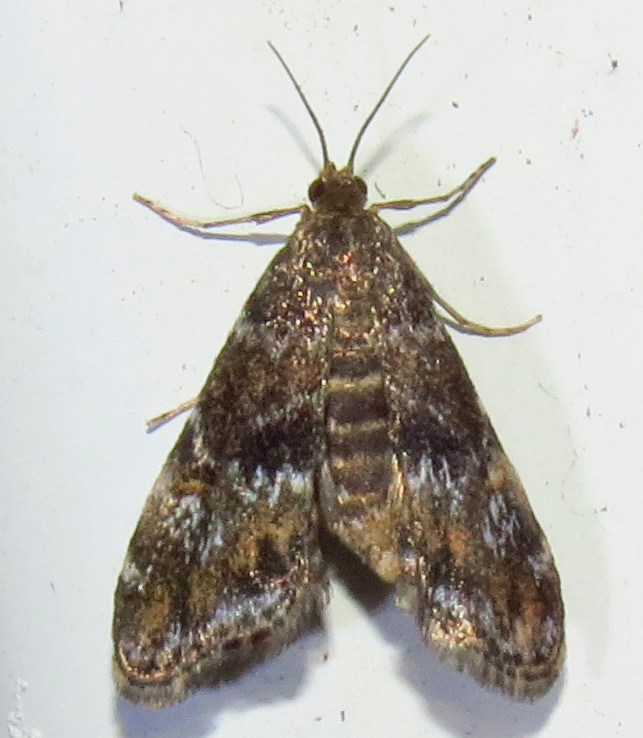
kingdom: Animalia
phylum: Arthropoda
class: Insecta
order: Lepidoptera
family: Crambidae
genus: Elophila
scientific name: Elophila obliteralis
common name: Waterlily leafcutter moth
